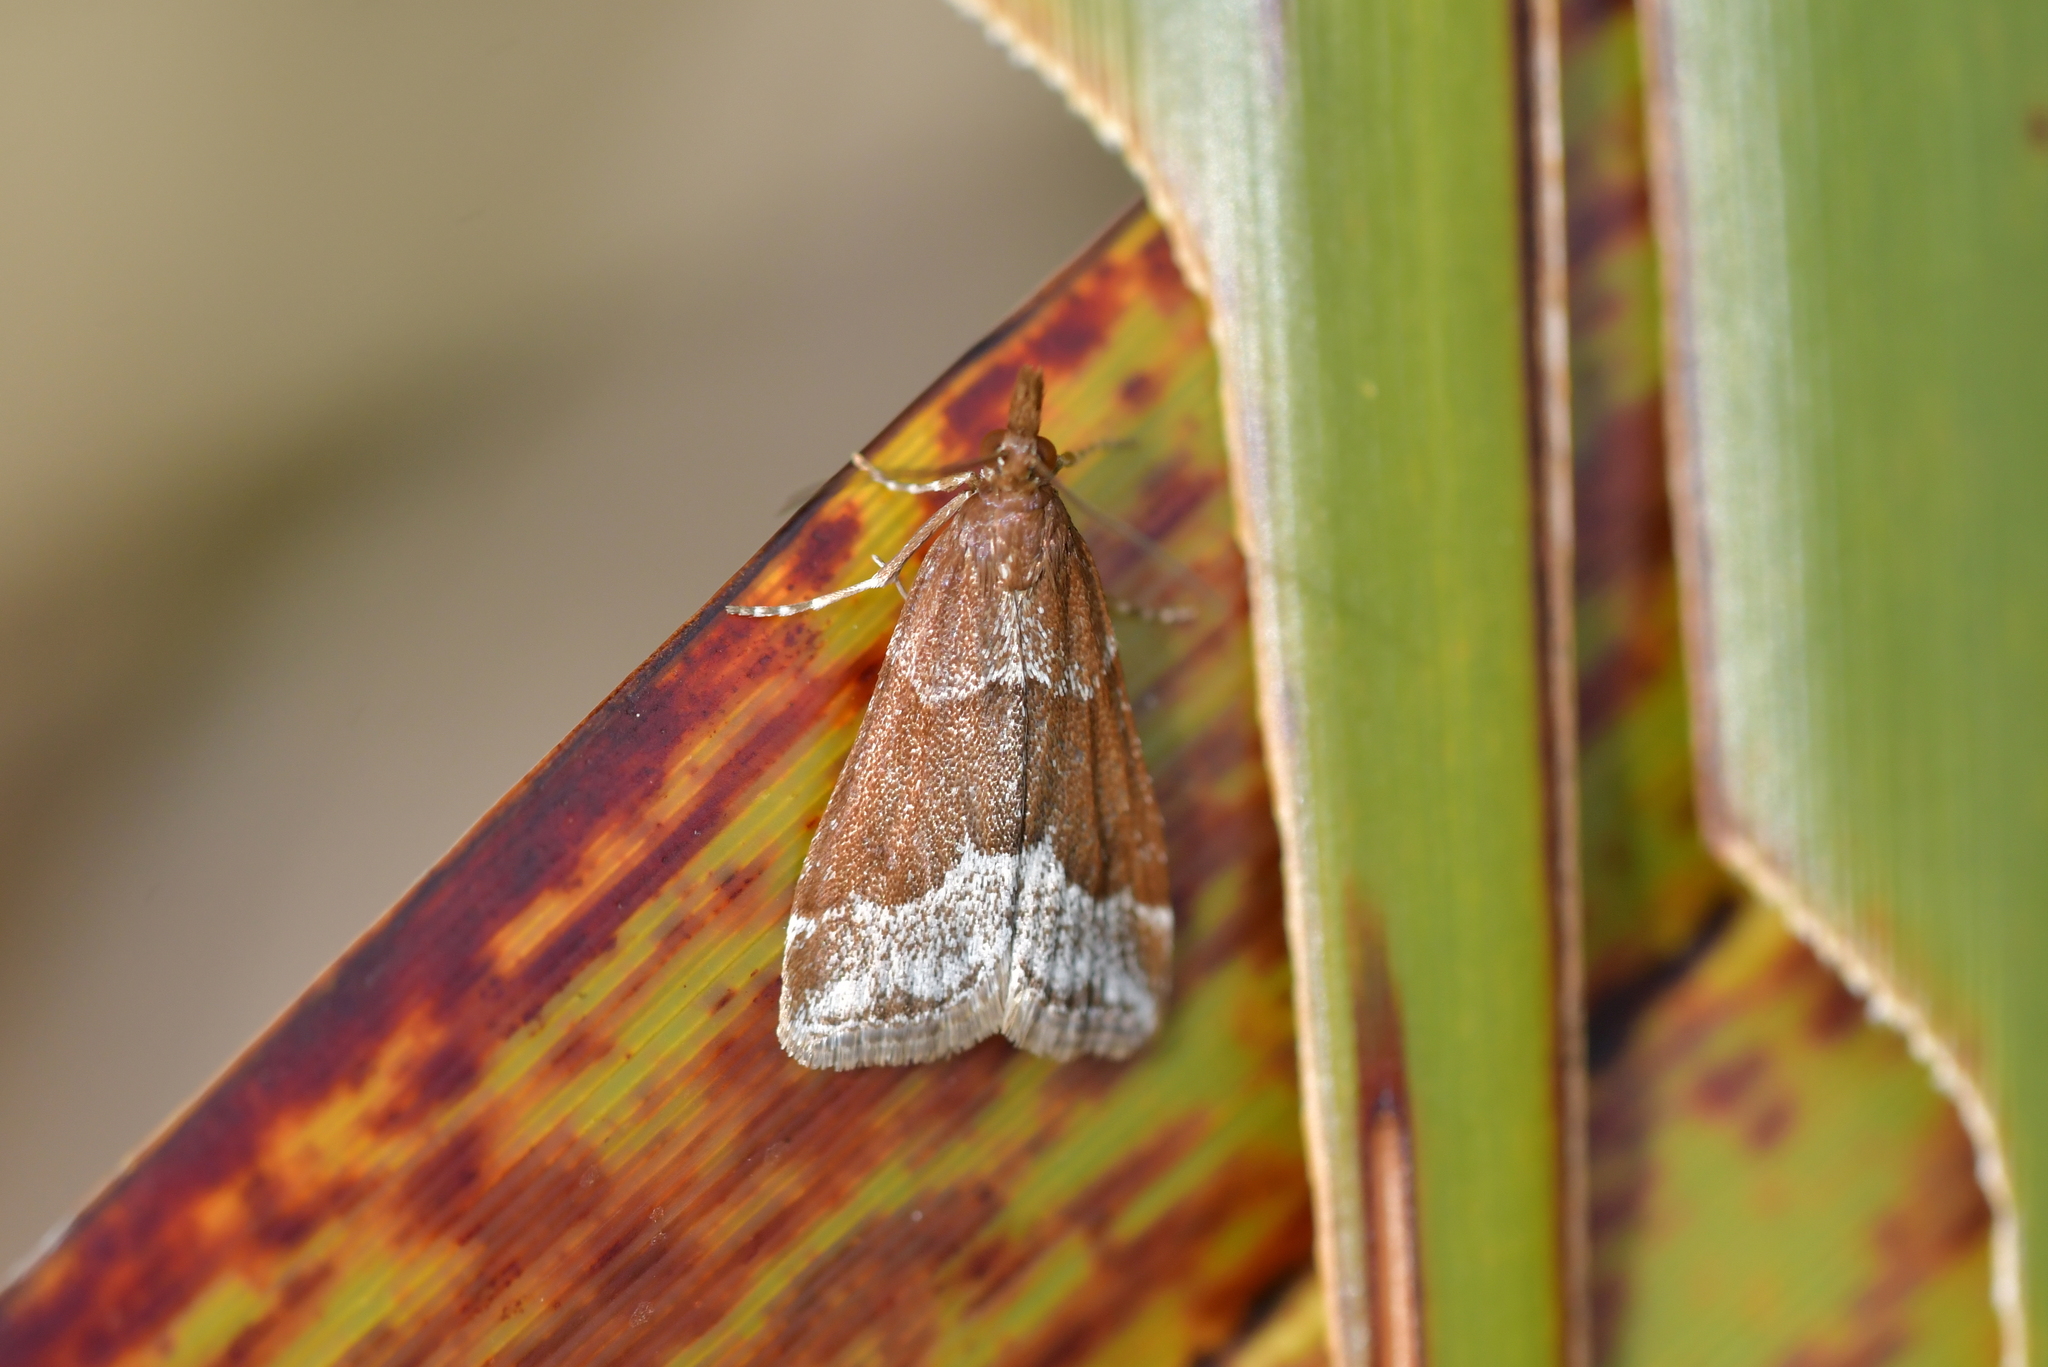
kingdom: Animalia
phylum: Arthropoda
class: Insecta
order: Lepidoptera
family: Crambidae
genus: Eudonia
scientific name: Eudonia feredayi
